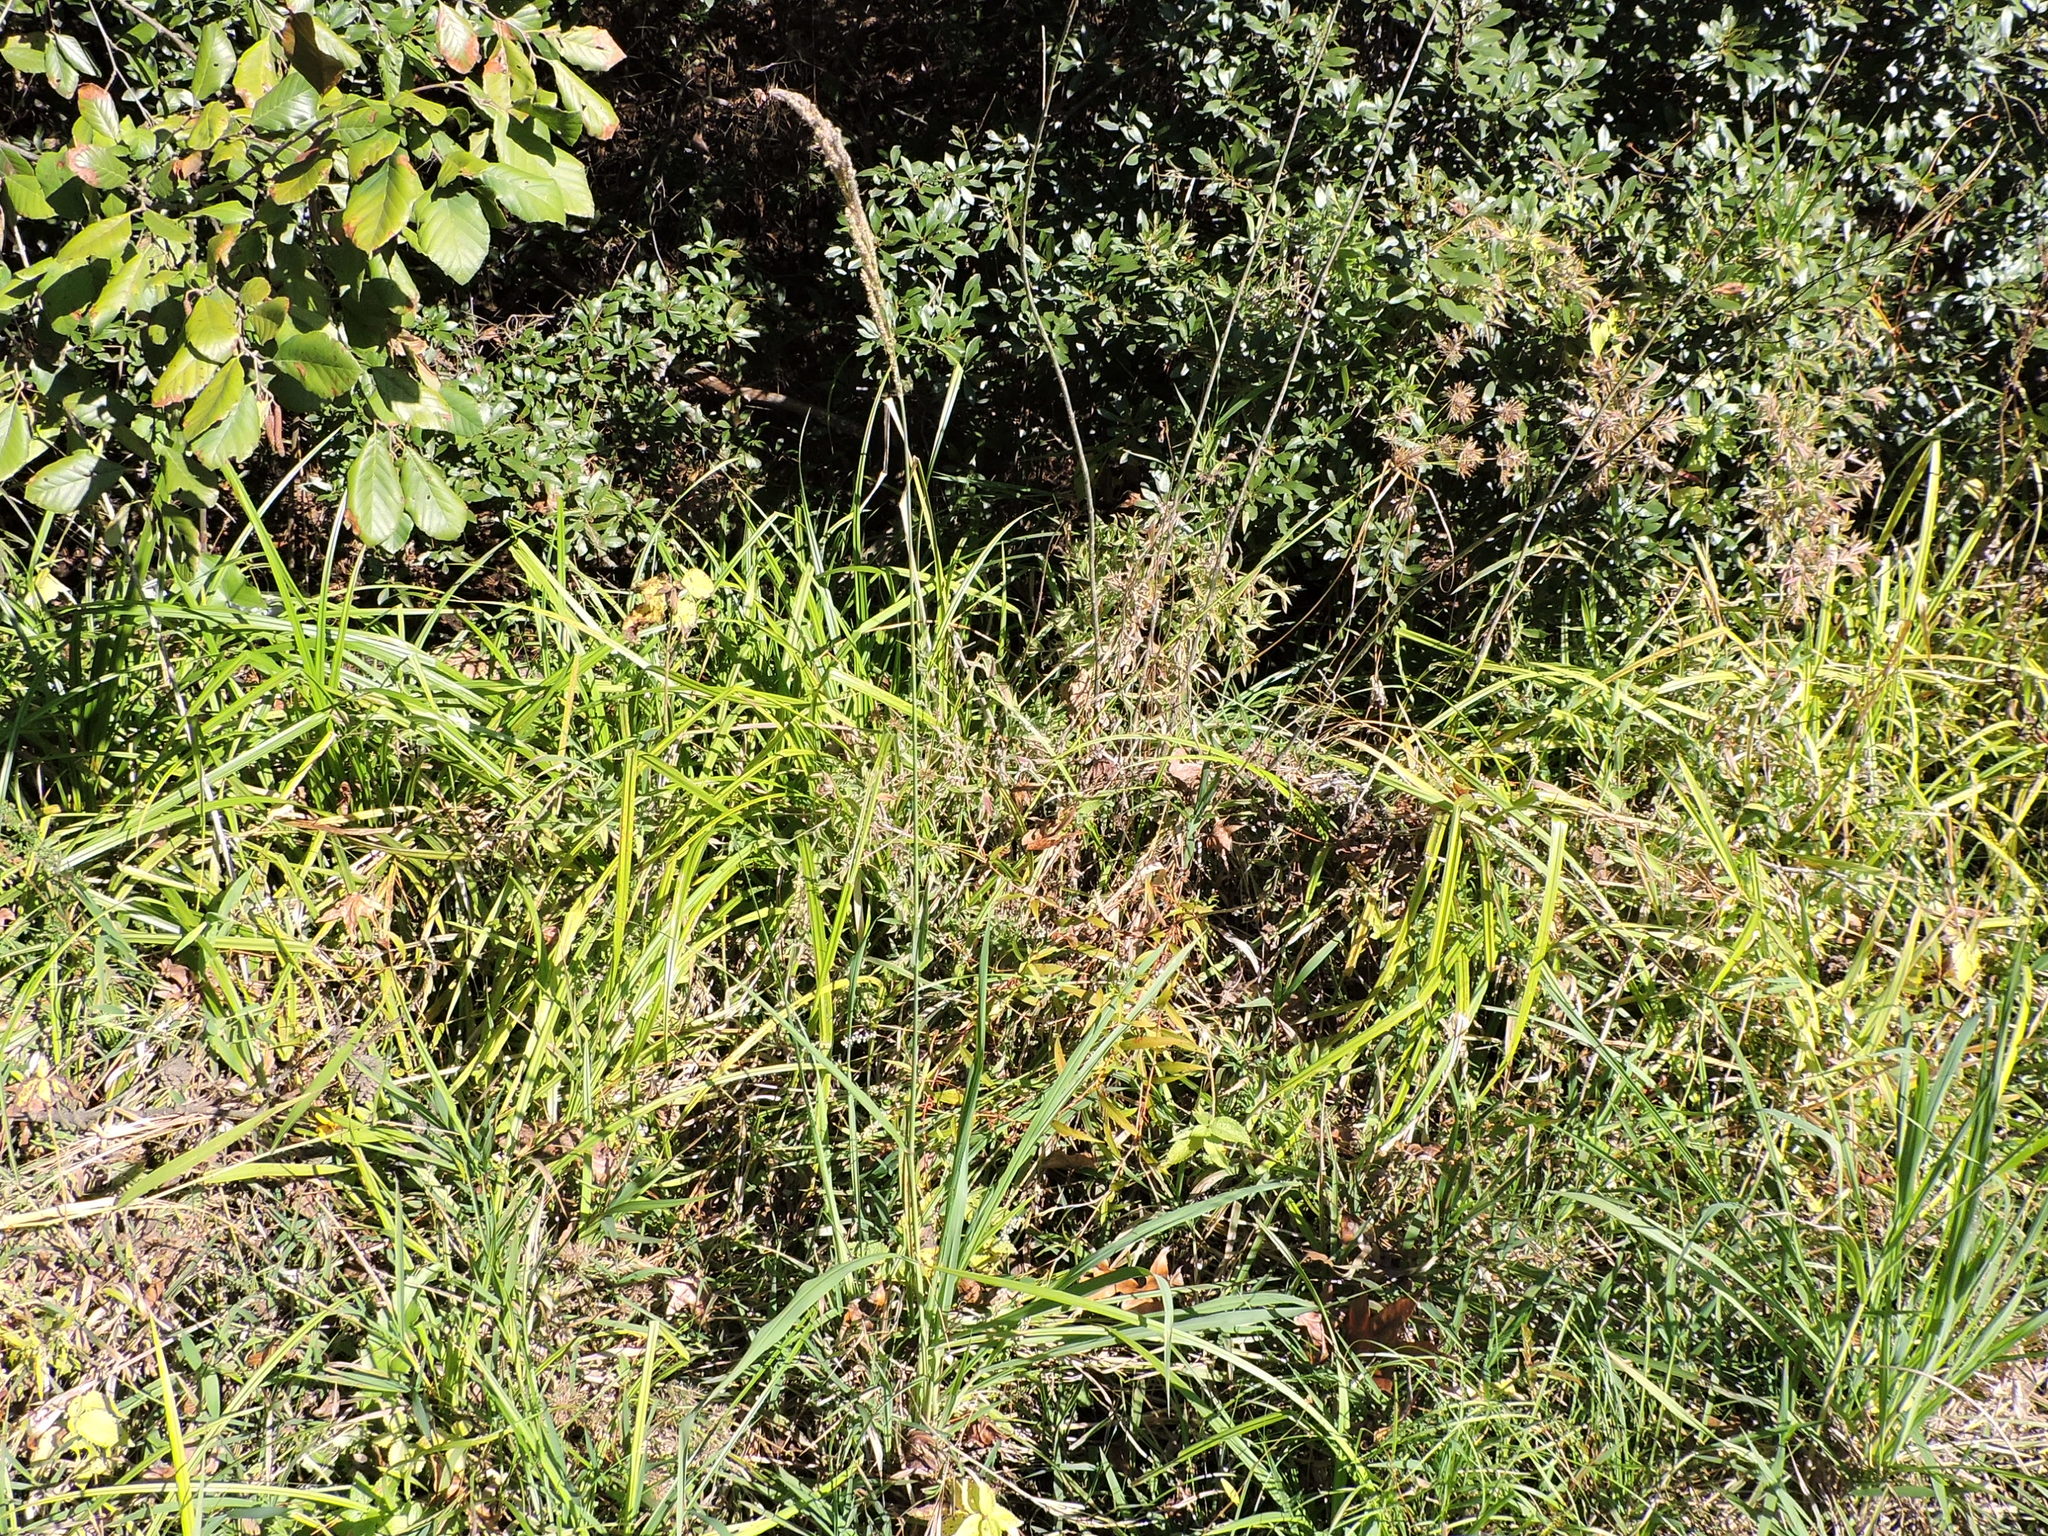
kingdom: Plantae
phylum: Tracheophyta
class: Liliopsida
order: Poales
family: Poaceae
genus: Paspalum
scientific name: Paspalum urvillei
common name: Vasey's grass
